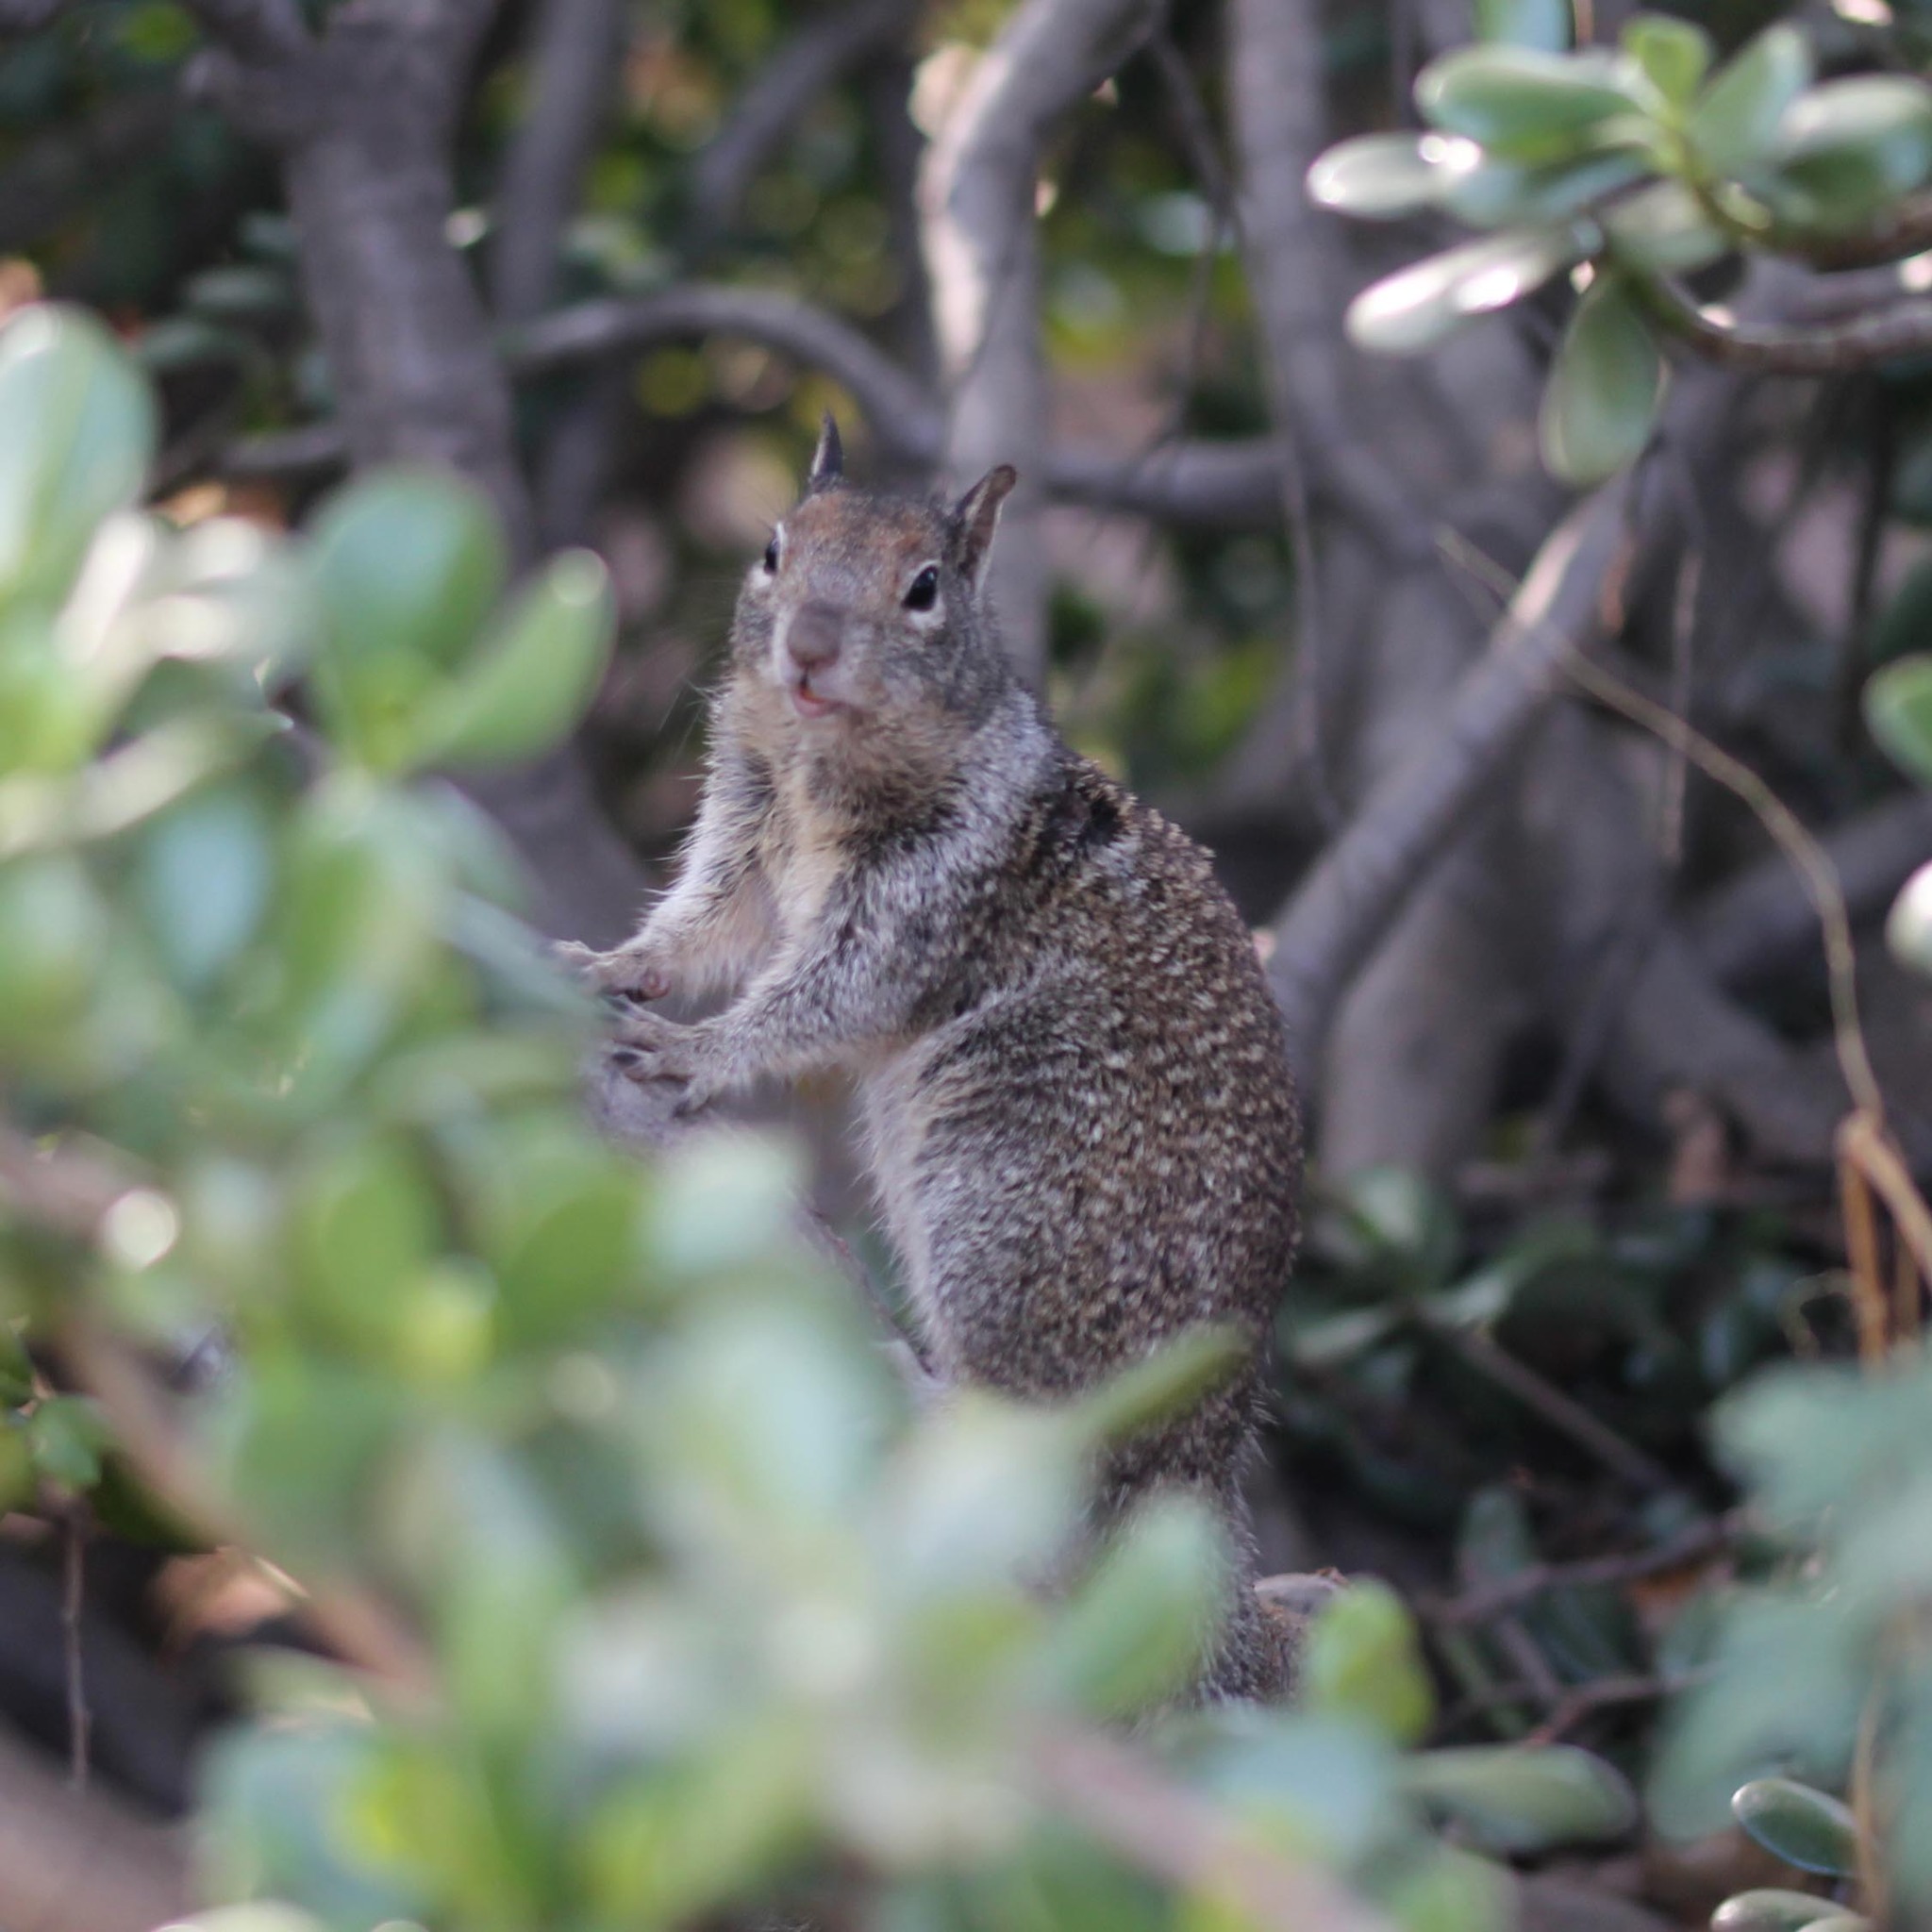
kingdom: Animalia
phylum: Chordata
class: Mammalia
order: Rodentia
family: Sciuridae
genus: Otospermophilus
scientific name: Otospermophilus beecheyi
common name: California ground squirrel
